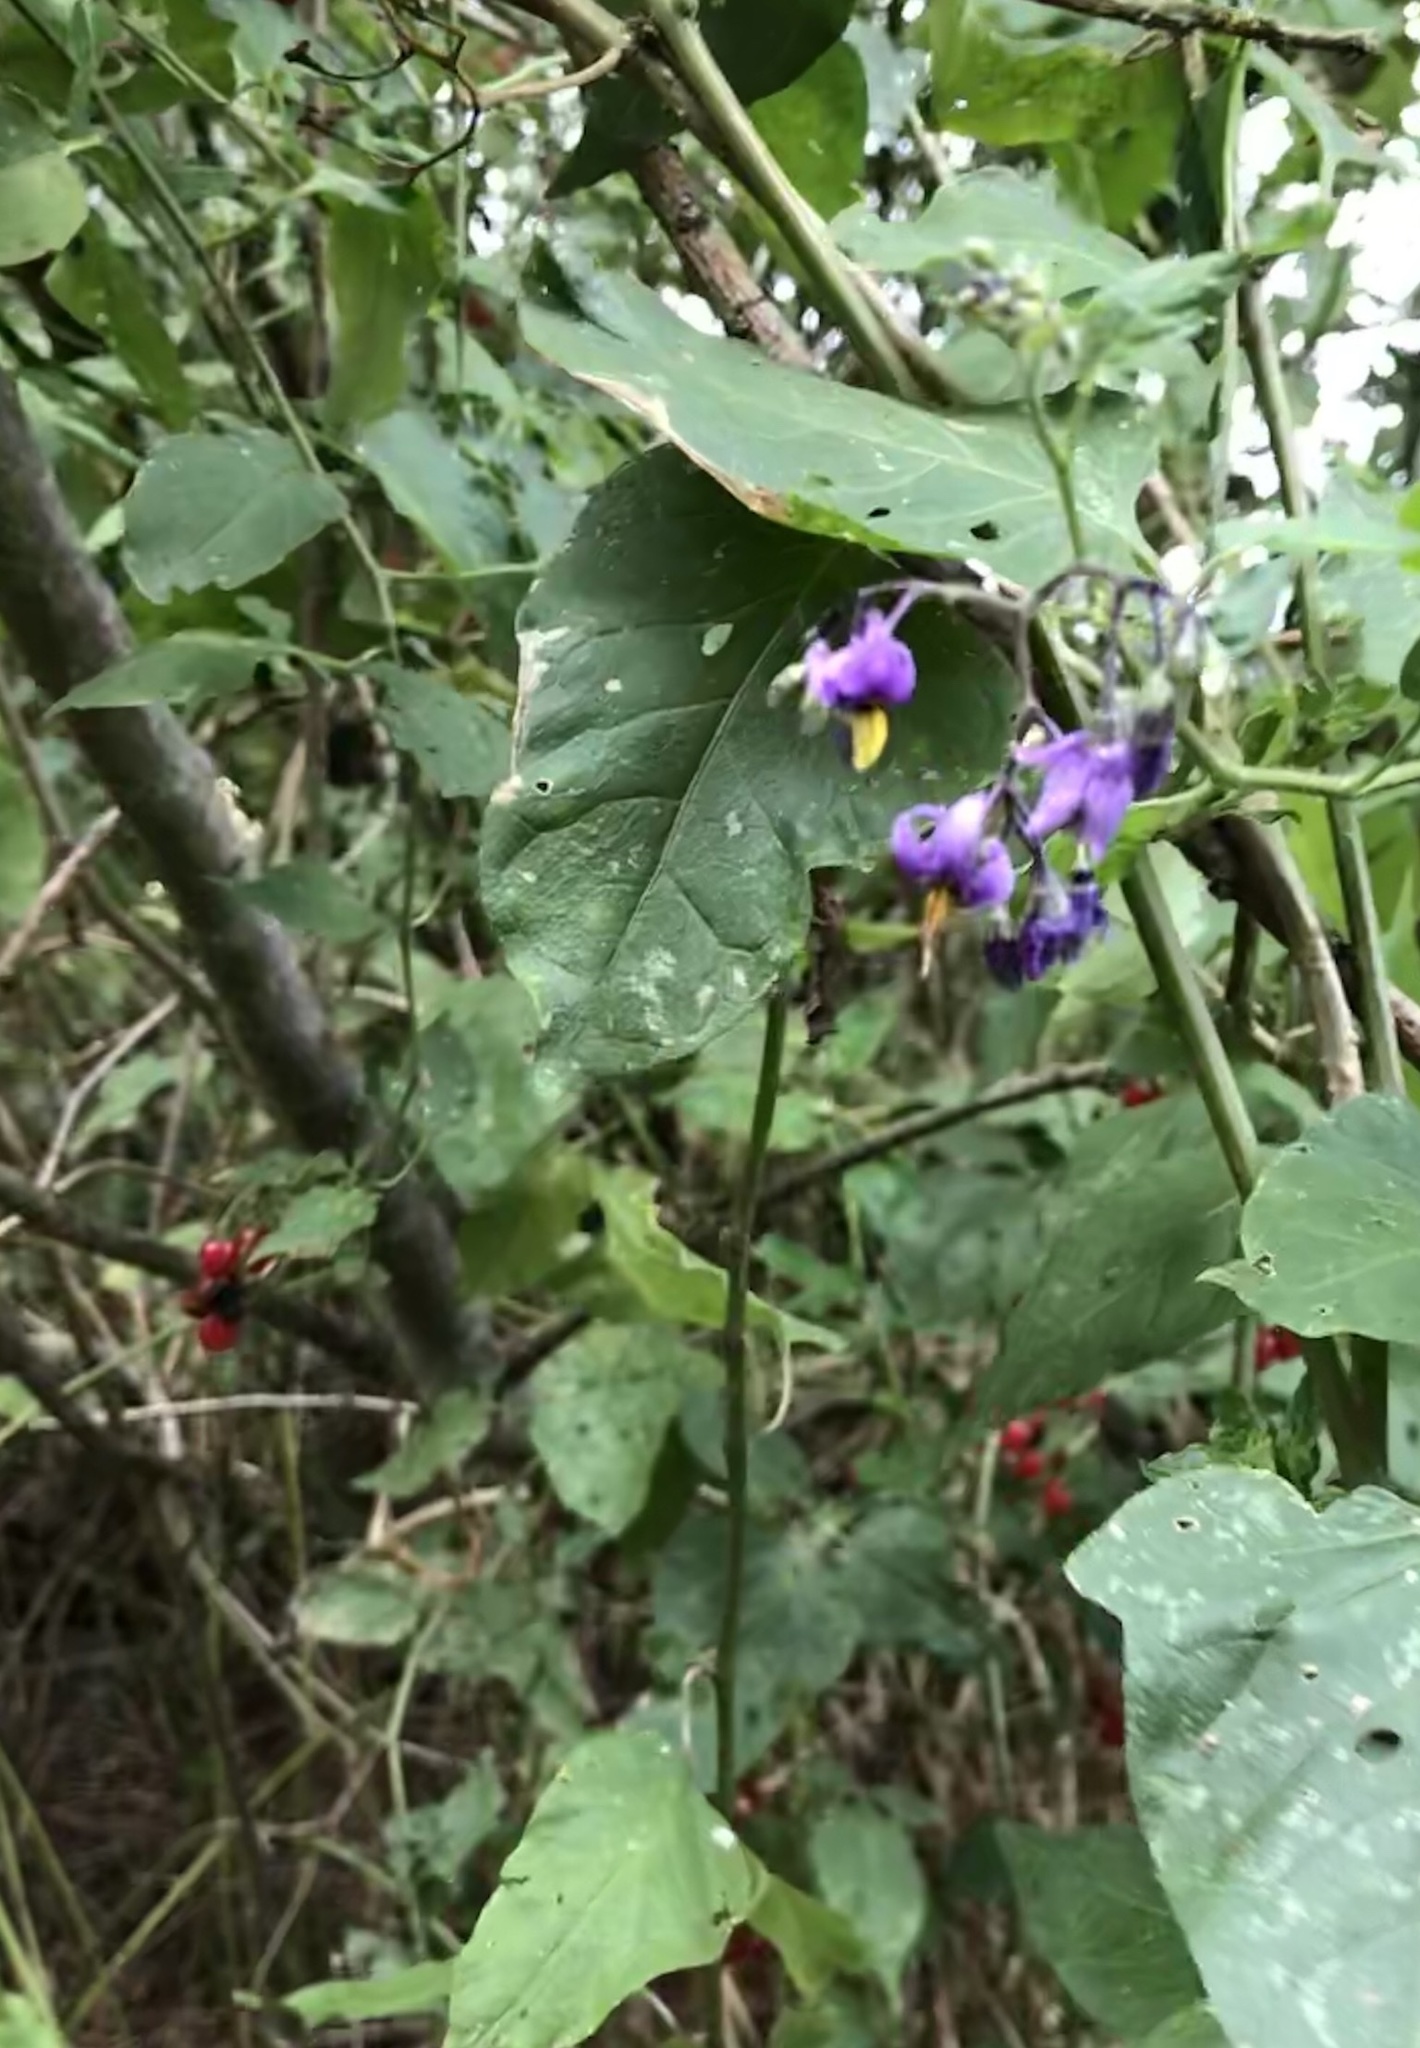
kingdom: Plantae
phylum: Tracheophyta
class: Magnoliopsida
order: Solanales
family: Solanaceae
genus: Solanum
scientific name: Solanum dulcamara
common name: Climbing nightshade
